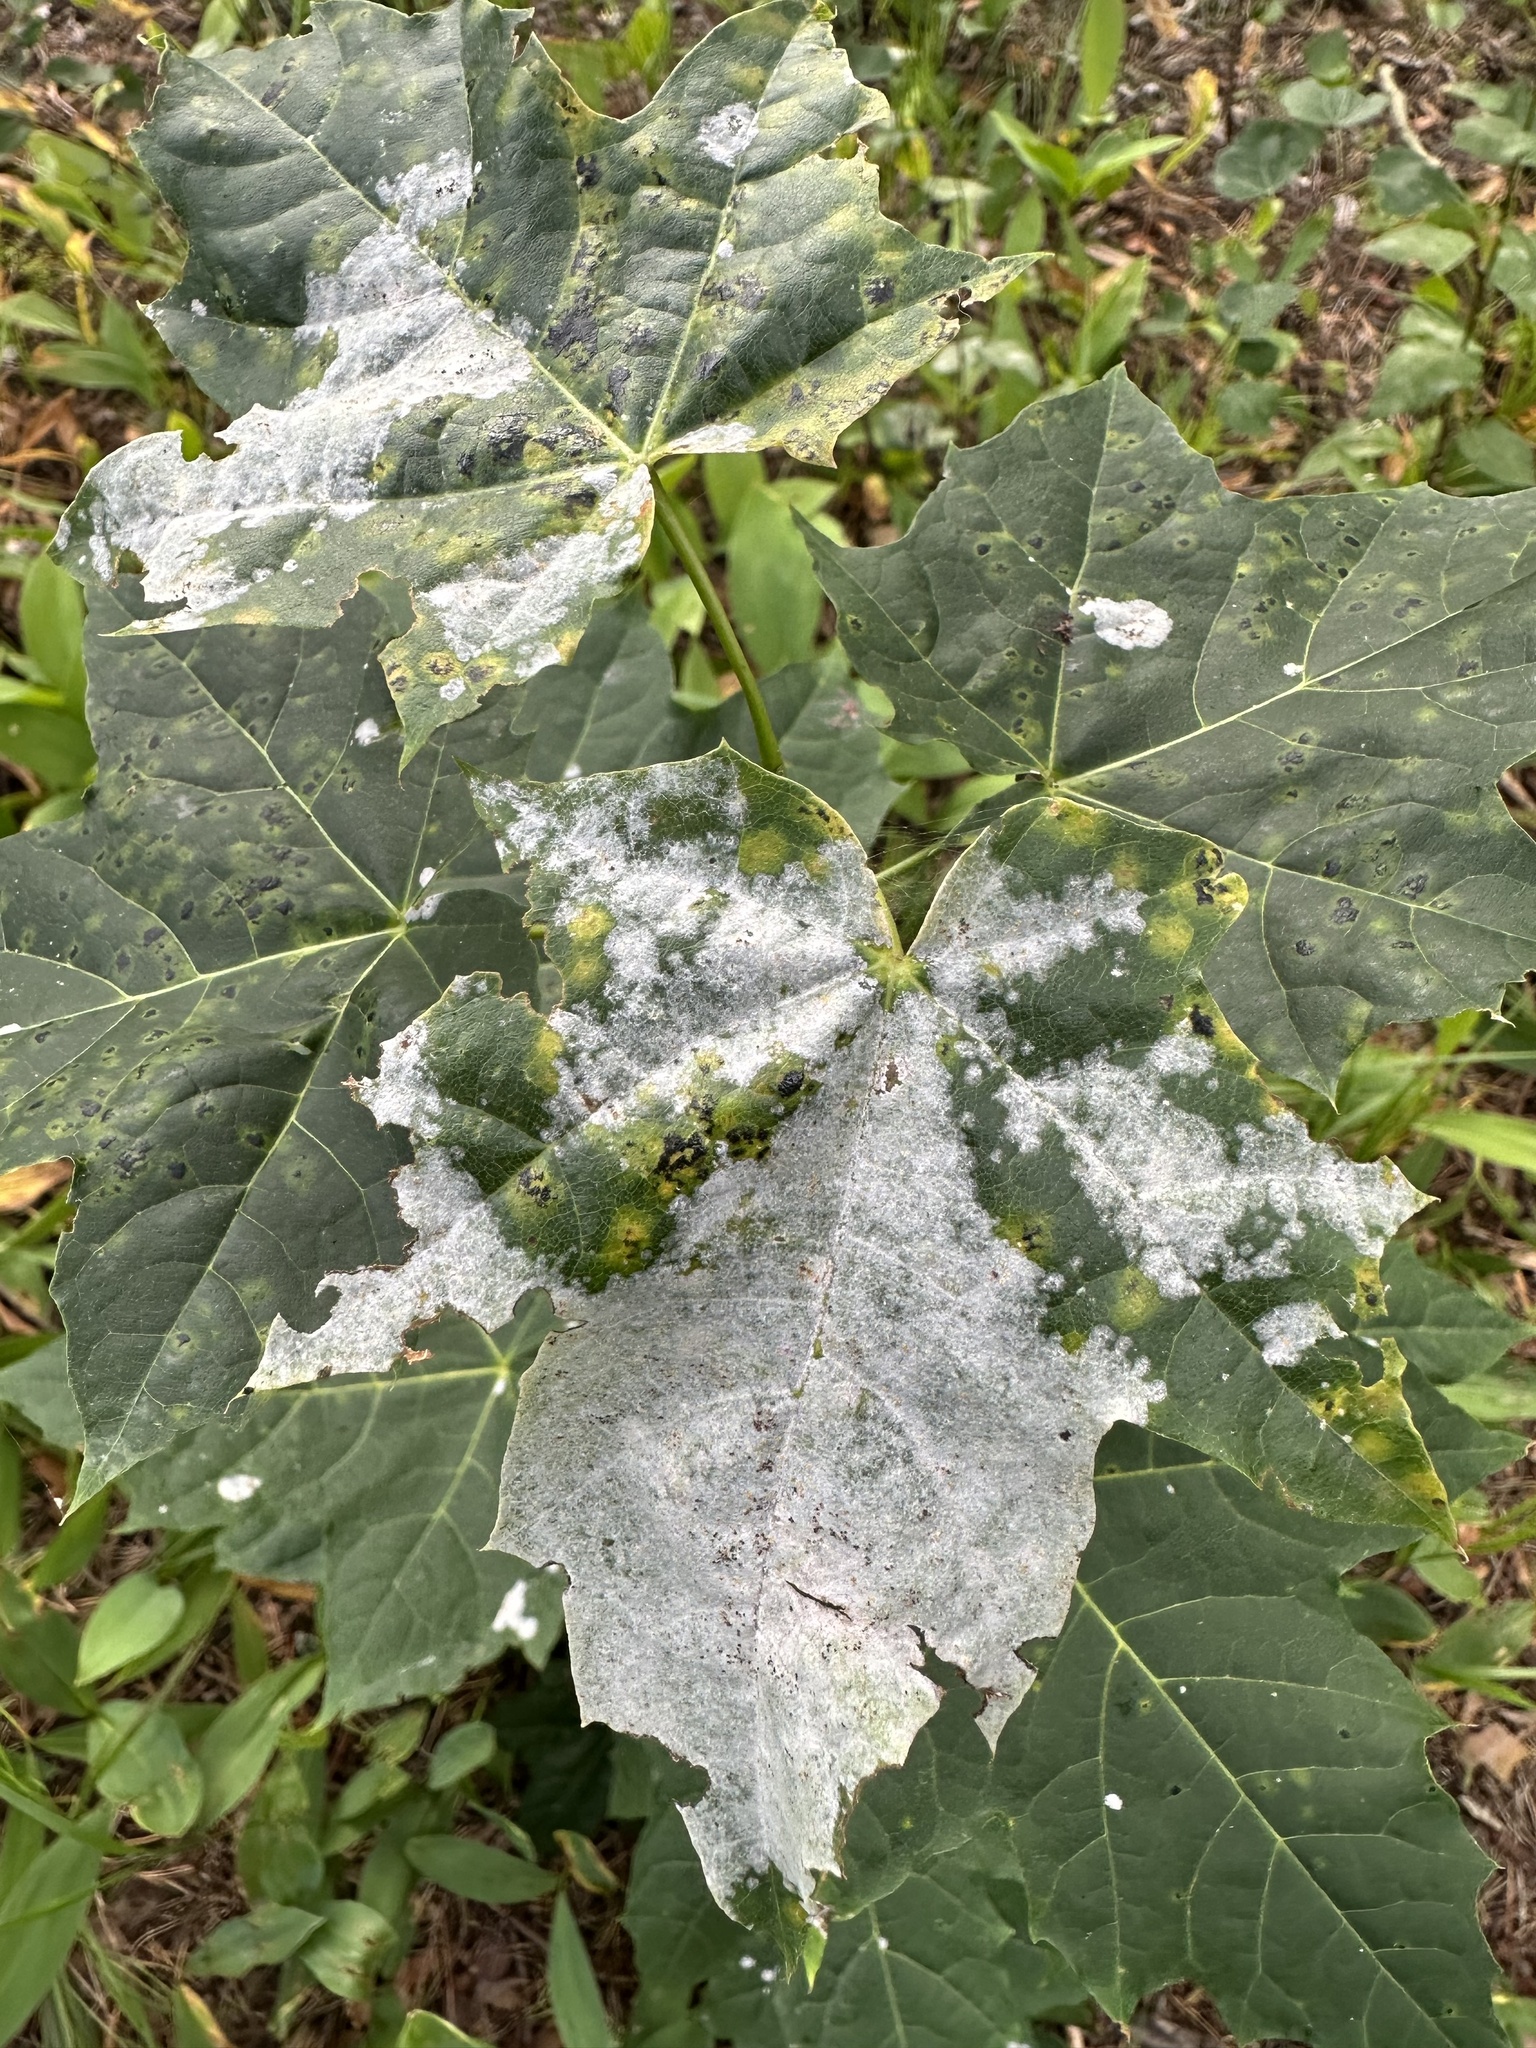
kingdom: Fungi
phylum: Ascomycota
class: Leotiomycetes
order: Helotiales
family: Erysiphaceae
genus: Sawadaea
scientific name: Sawadaea tulasnei
